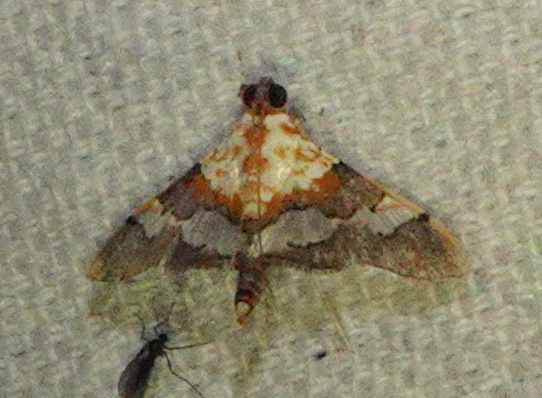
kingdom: Animalia
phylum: Arthropoda
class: Insecta
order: Lepidoptera
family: Crambidae
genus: Aetholix
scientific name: Aetholix flavibasalis
